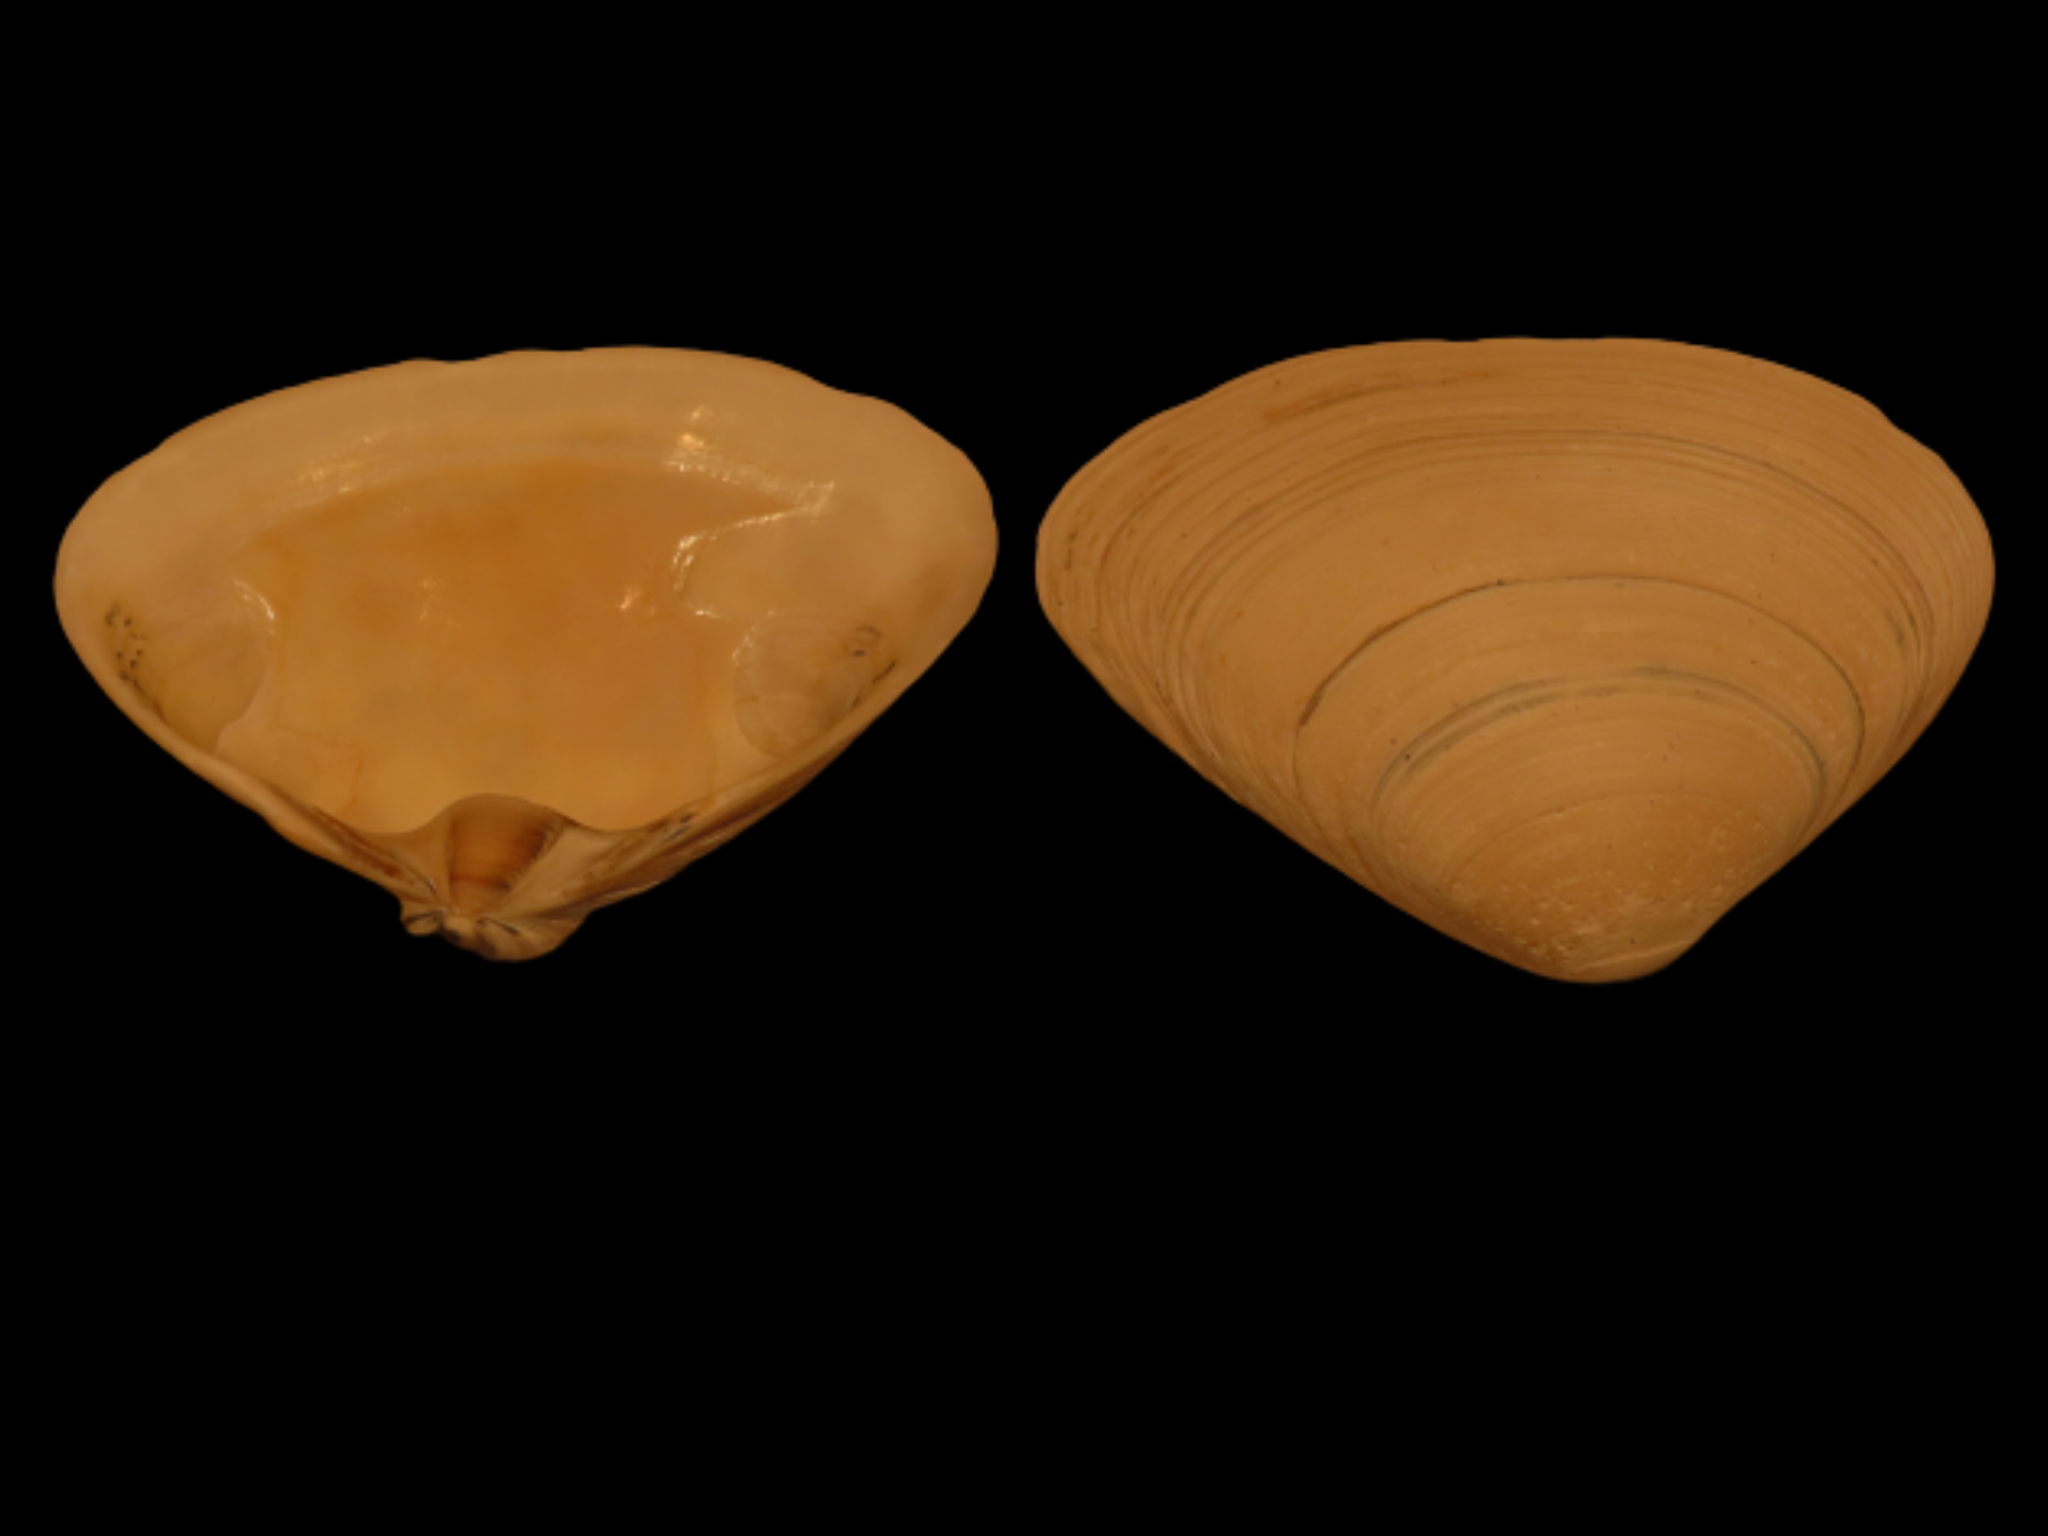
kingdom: Animalia
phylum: Mollusca
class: Bivalvia
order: Venerida
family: Mactridae
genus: Spisula
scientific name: Spisula solidissima
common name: Atlantic surf clam
